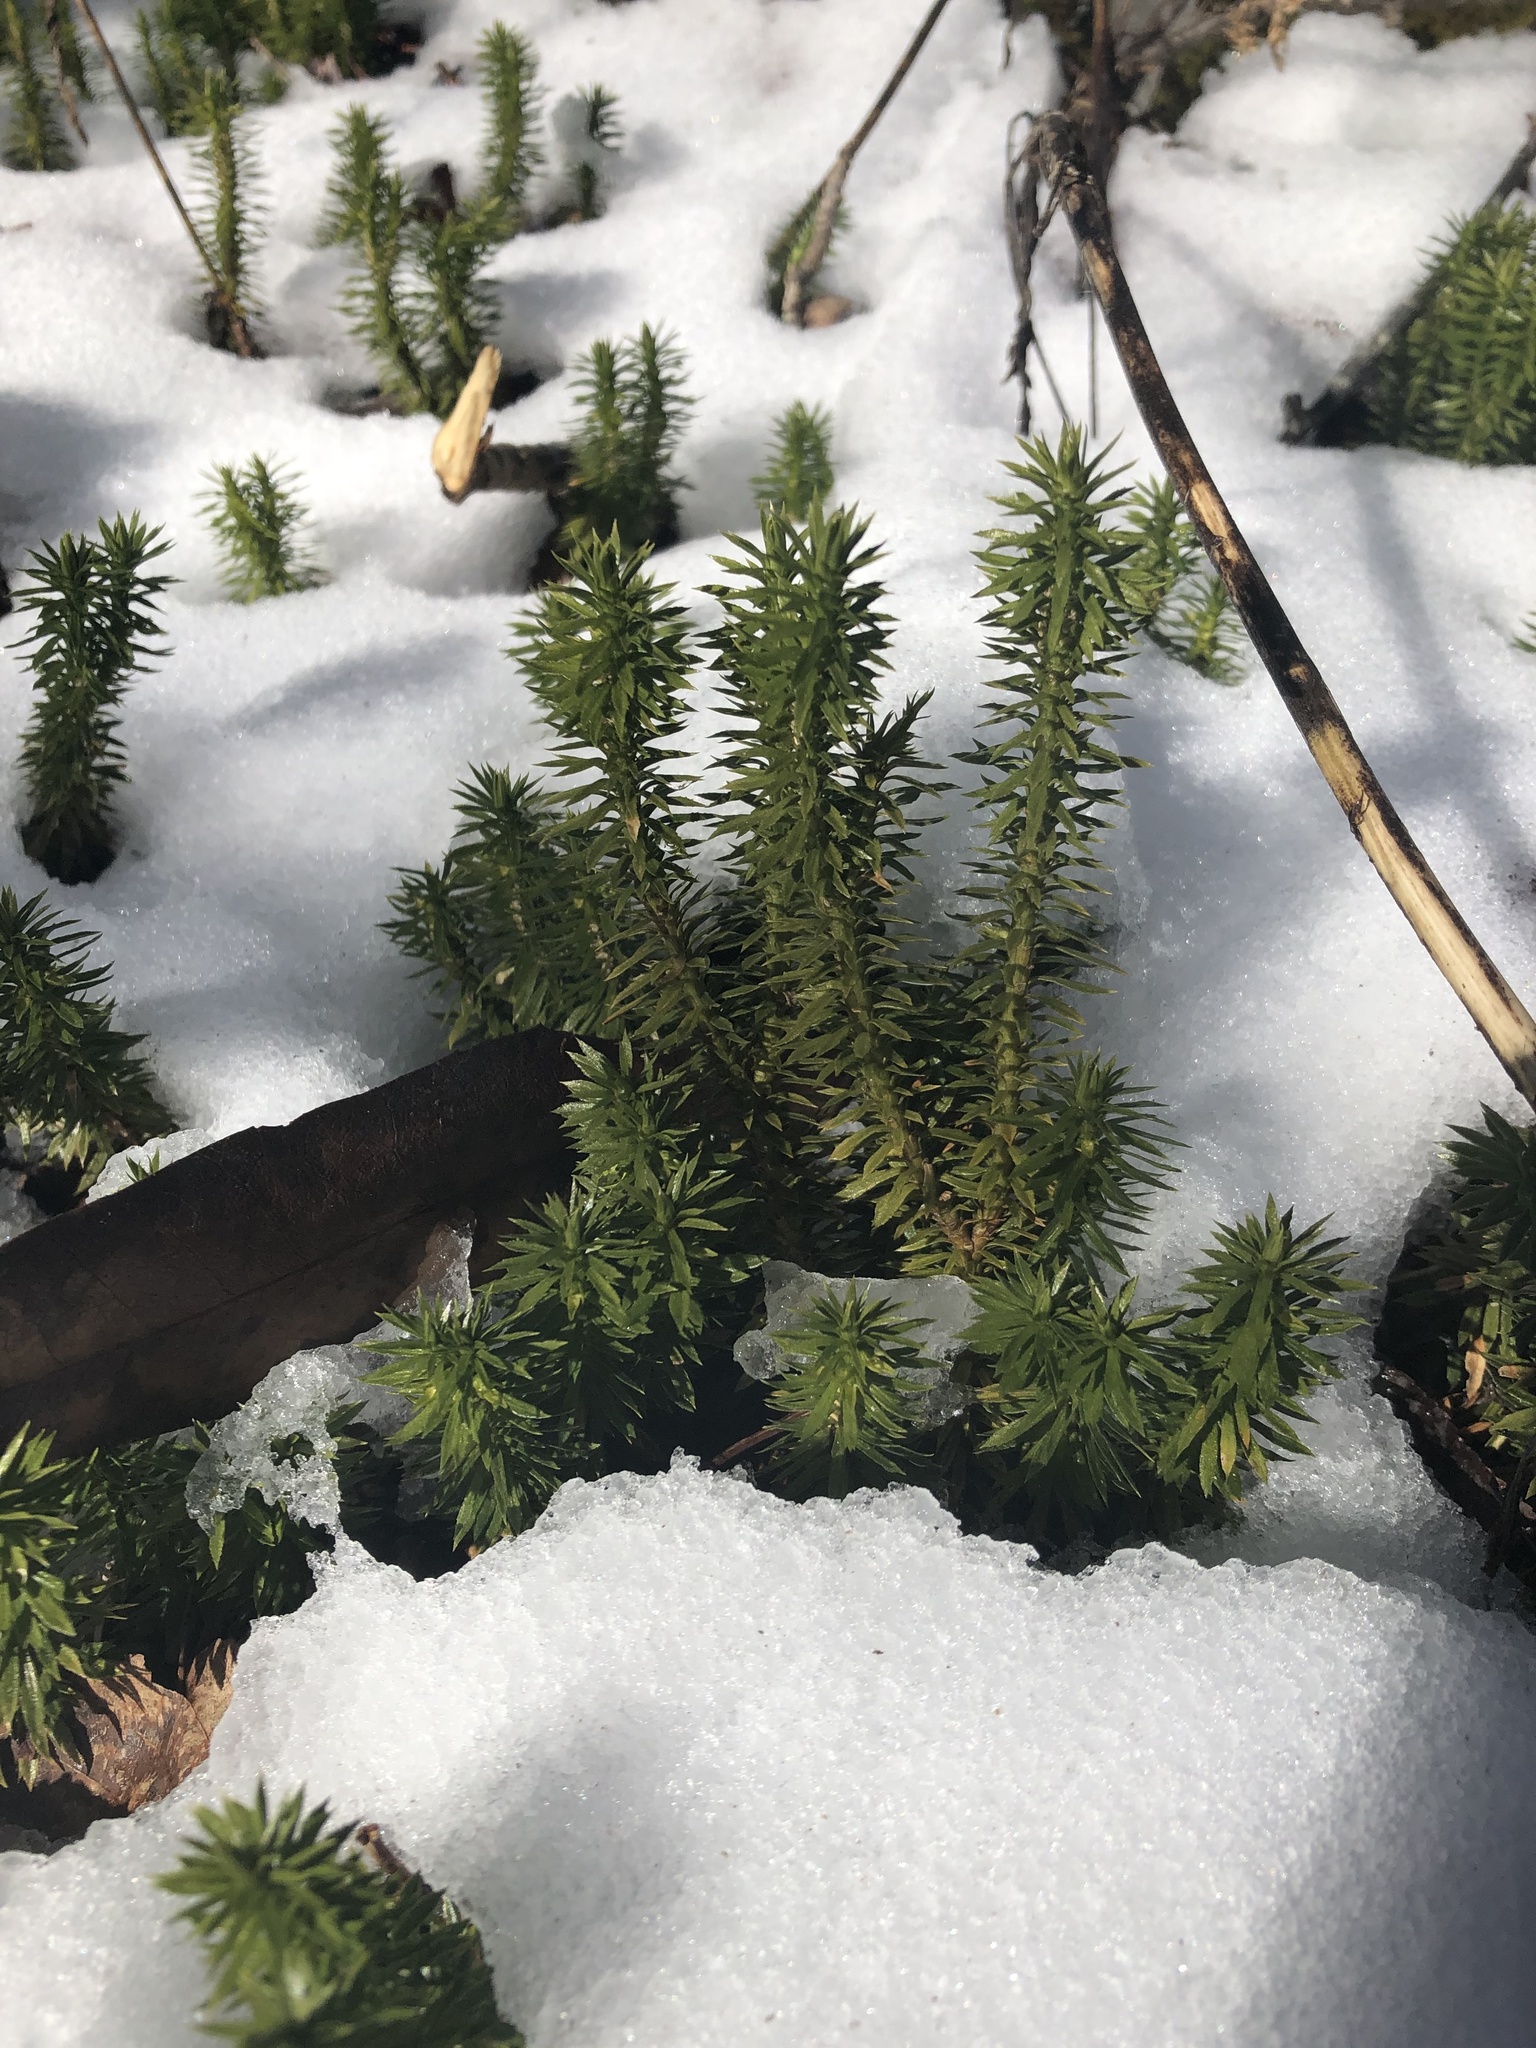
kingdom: Plantae
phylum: Tracheophyta
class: Lycopodiopsida
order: Lycopodiales
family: Lycopodiaceae
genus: Huperzia
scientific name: Huperzia lucidula
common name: Shining clubmoss
